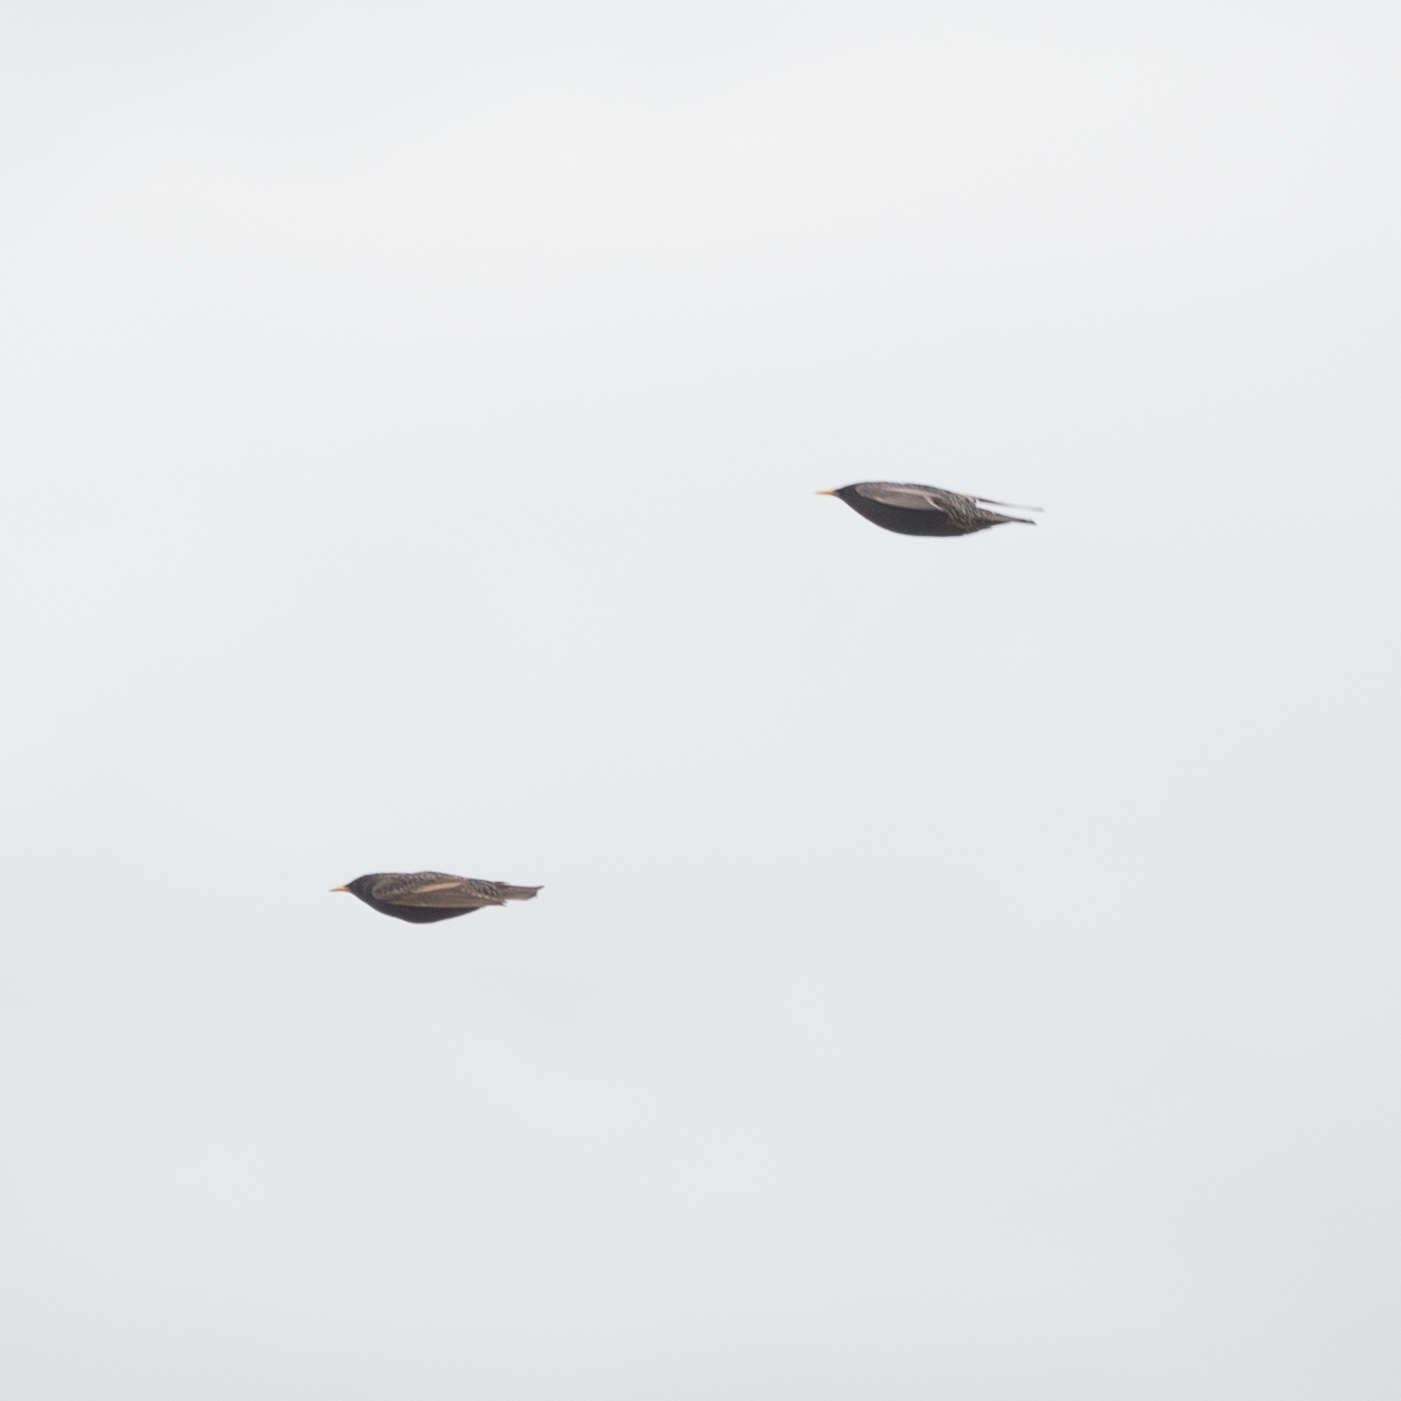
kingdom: Animalia
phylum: Chordata
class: Aves
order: Passeriformes
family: Sturnidae
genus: Sturnus
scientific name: Sturnus vulgaris
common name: Common starling
